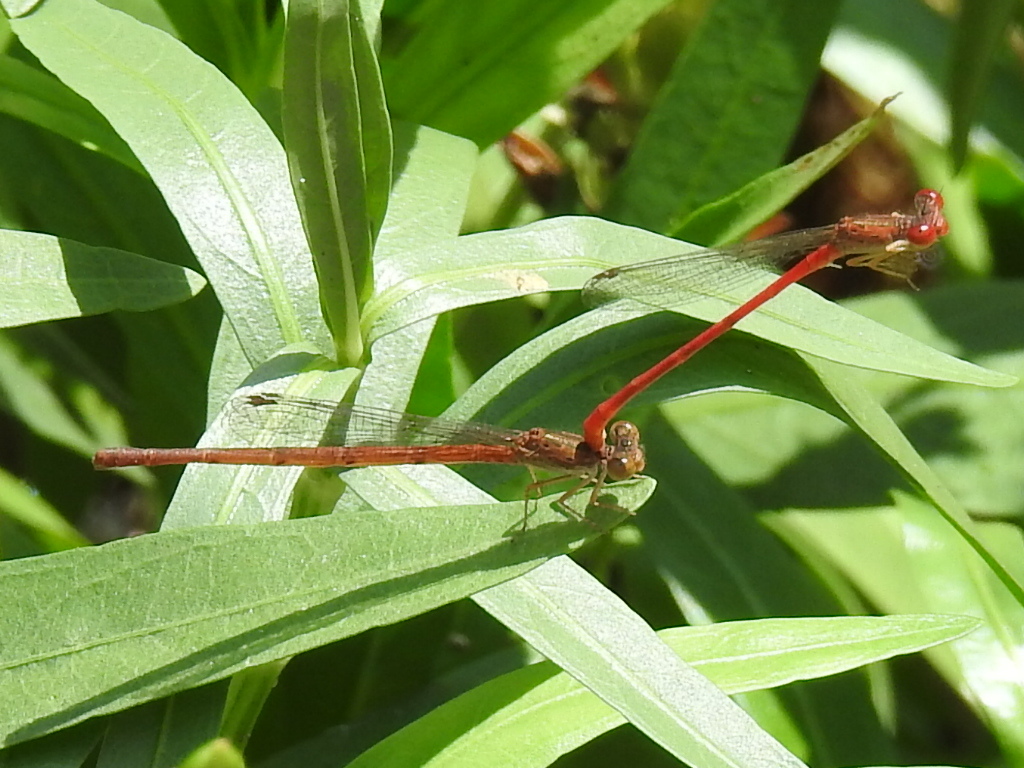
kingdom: Animalia
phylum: Arthropoda
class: Insecta
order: Odonata
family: Coenagrionidae
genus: Telebasis
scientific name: Telebasis salva
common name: Desert firetail
